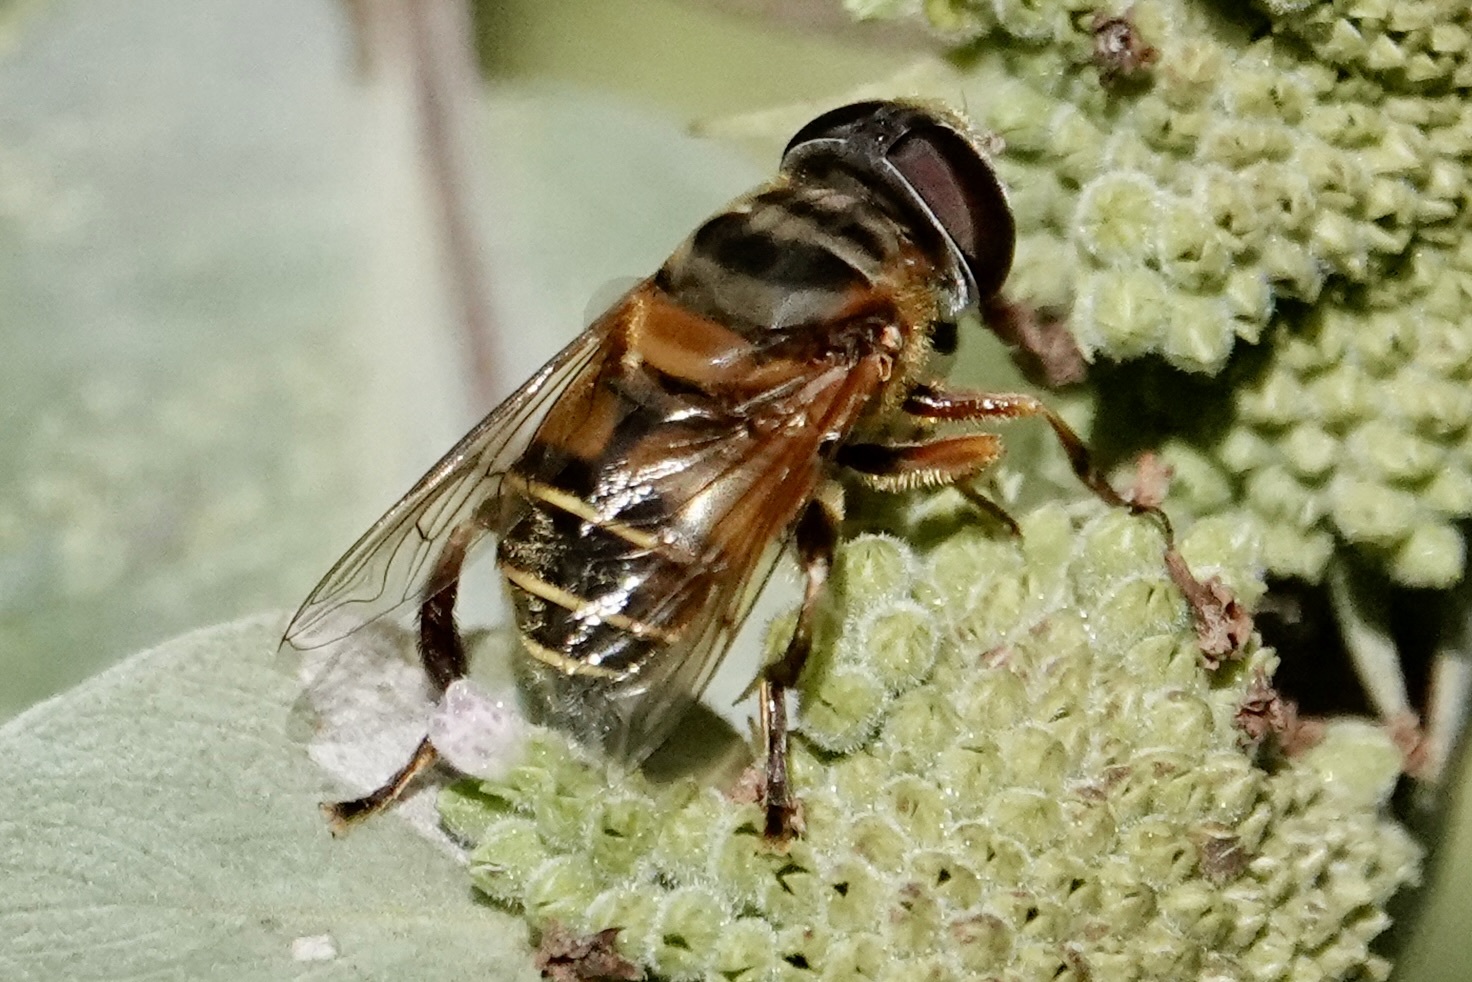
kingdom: Animalia
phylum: Arthropoda
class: Insecta
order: Diptera
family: Syrphidae
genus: Palpada
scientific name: Palpada vinetorum
